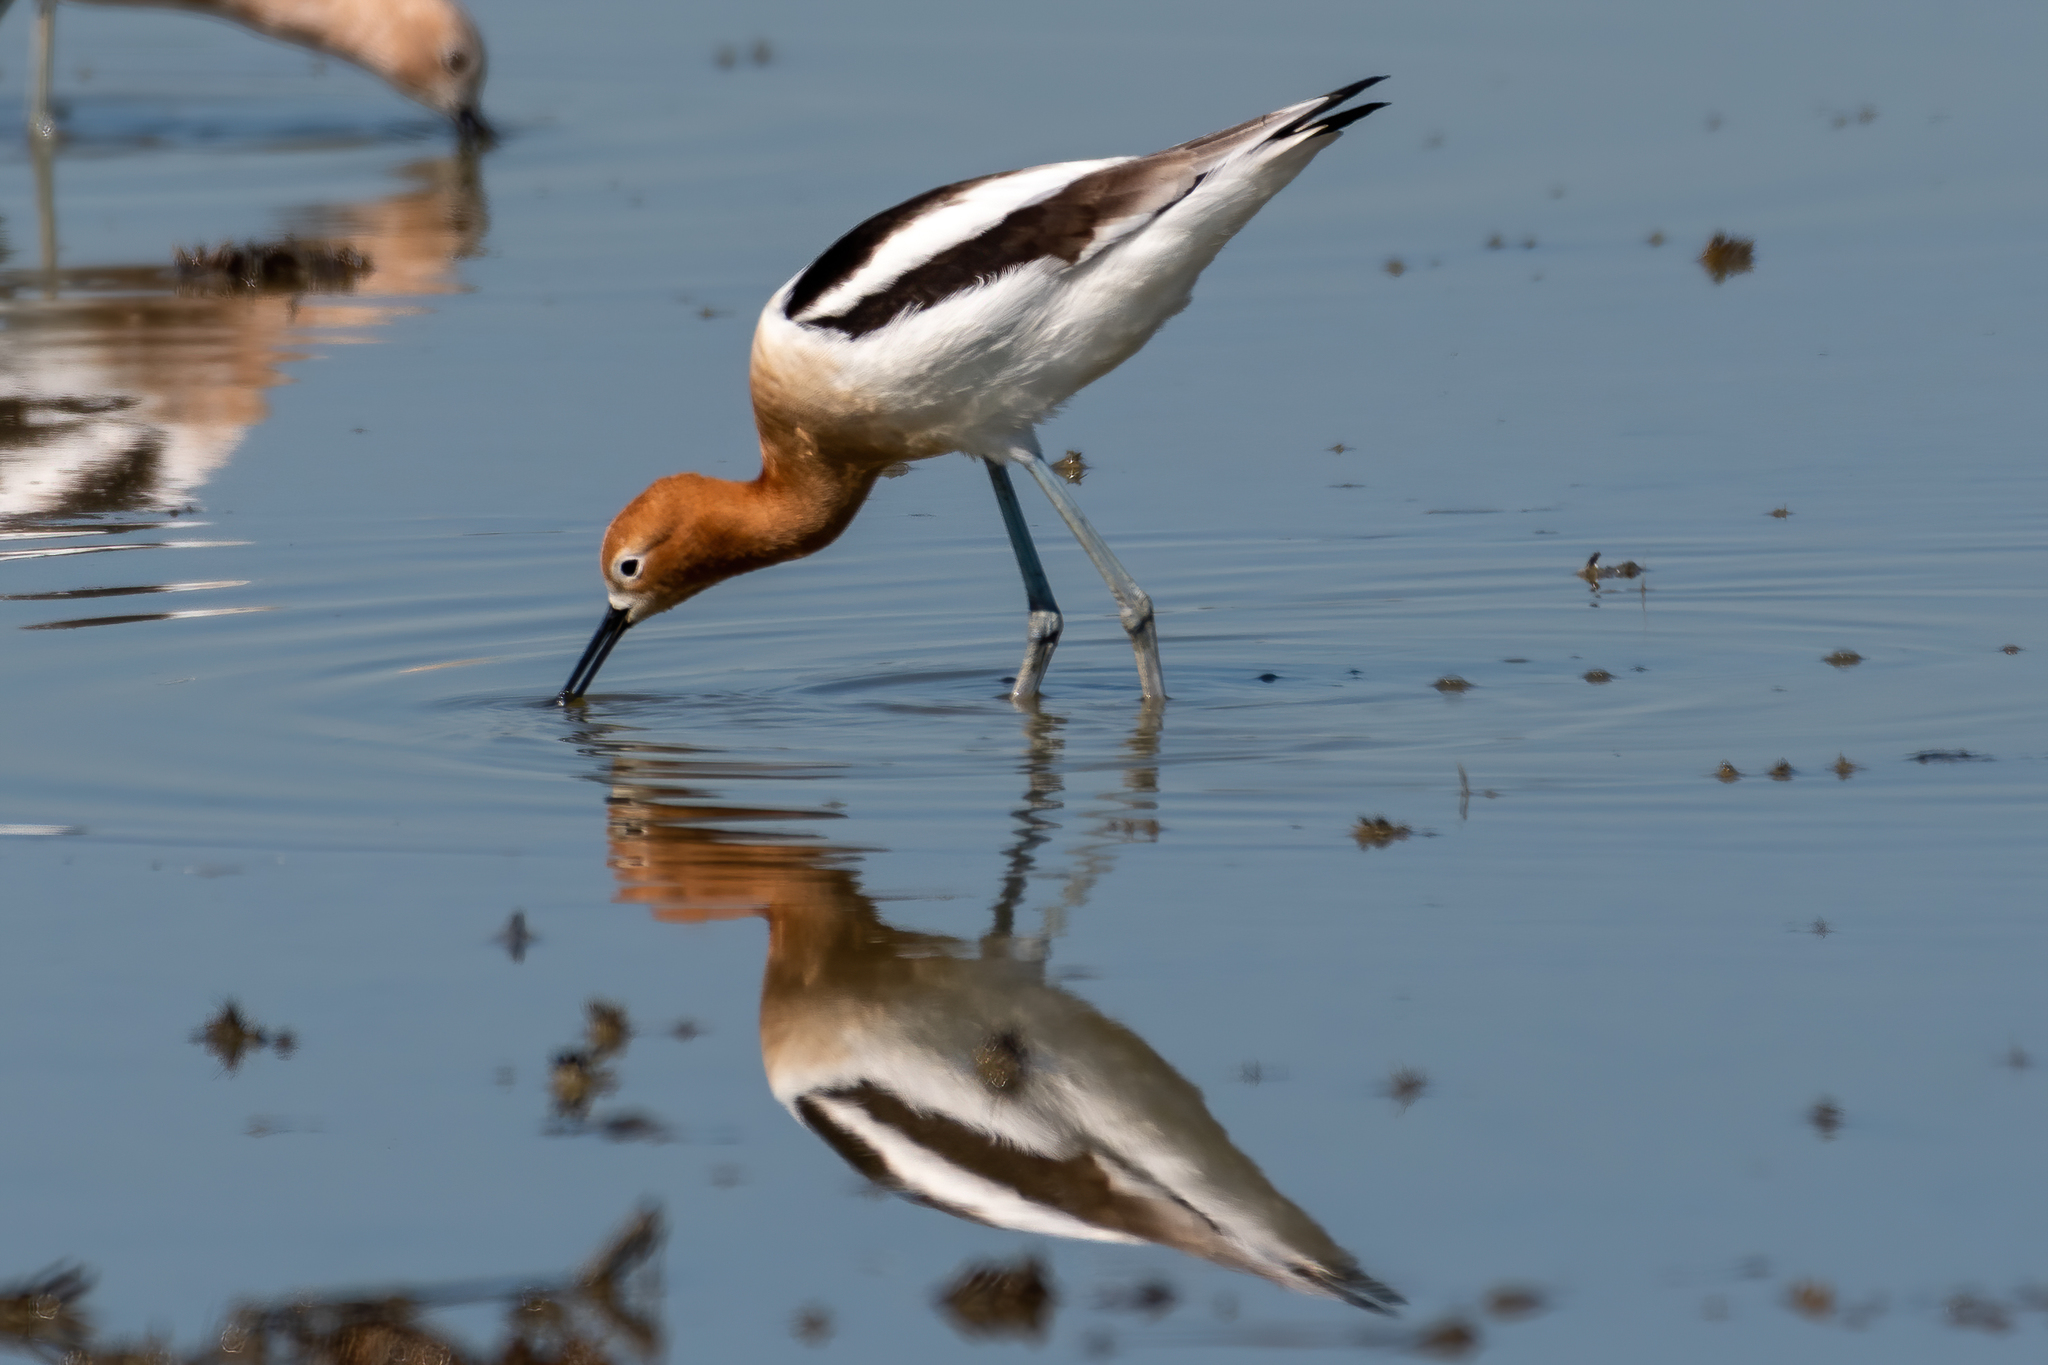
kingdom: Animalia
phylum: Chordata
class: Aves
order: Charadriiformes
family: Recurvirostridae
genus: Recurvirostra
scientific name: Recurvirostra americana
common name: American avocet
